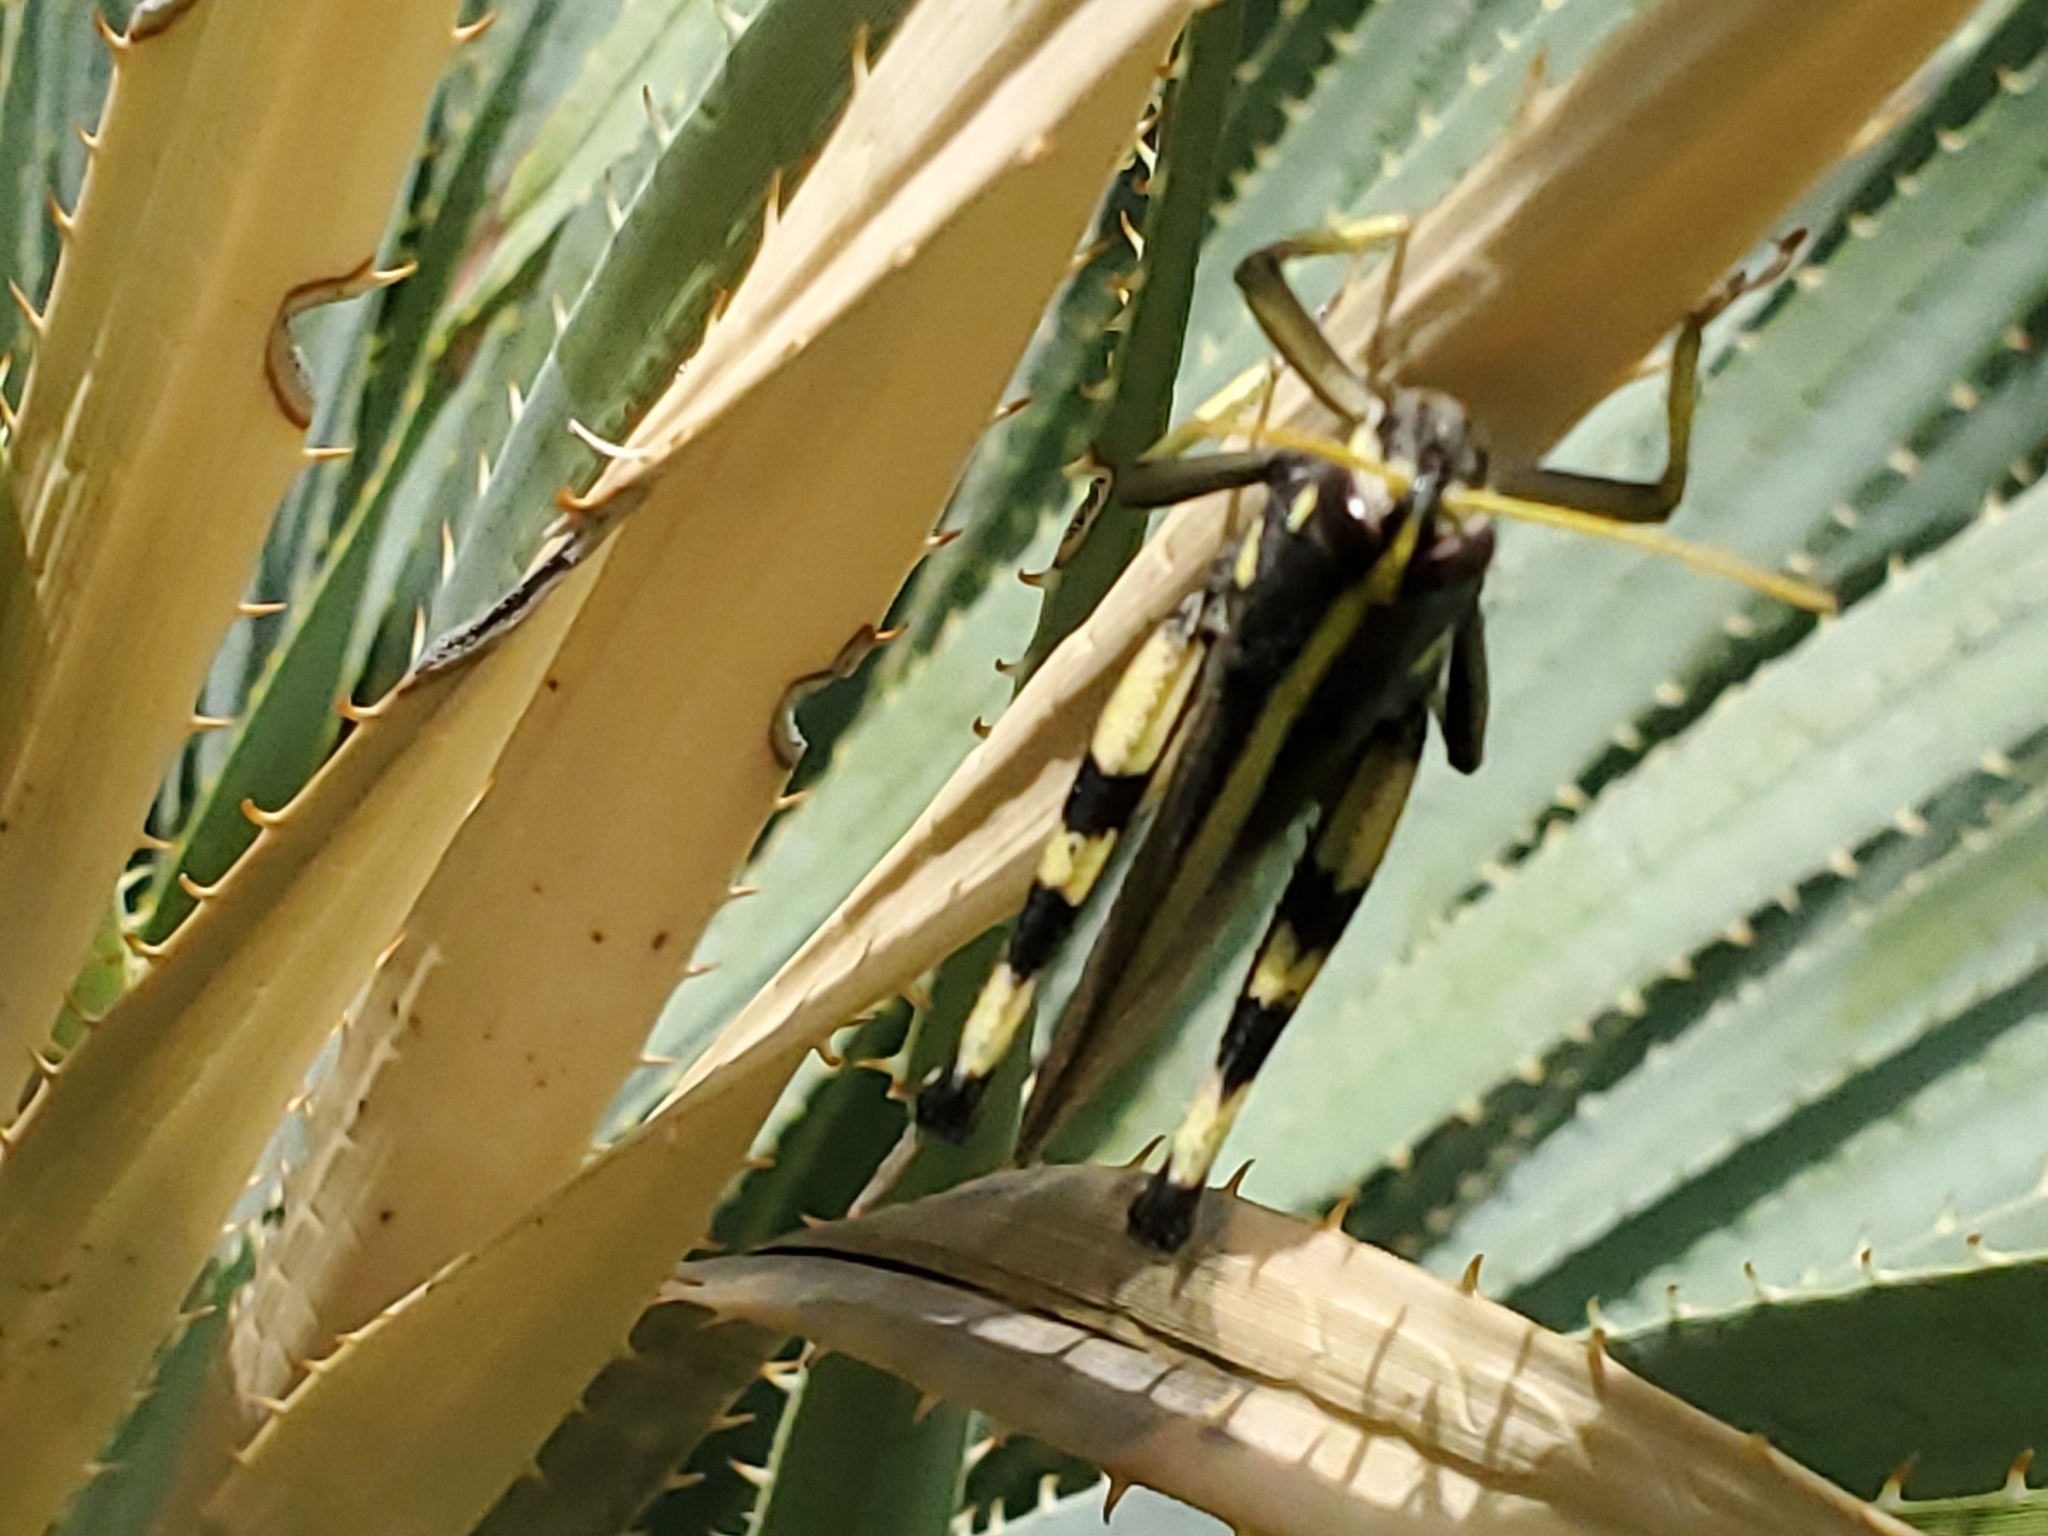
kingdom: Animalia
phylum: Arthropoda
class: Insecta
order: Orthoptera
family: Acrididae
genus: Schistocerca
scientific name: Schistocerca albolineata
